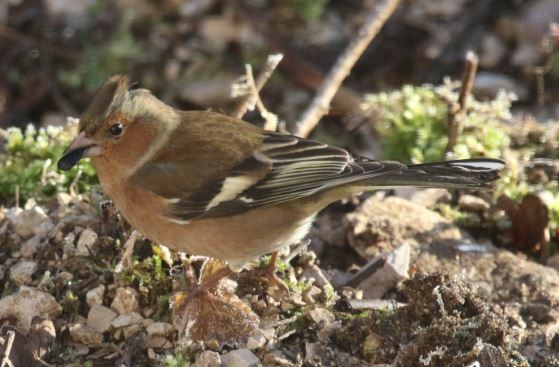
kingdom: Animalia
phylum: Chordata
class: Aves
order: Passeriformes
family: Fringillidae
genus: Fringilla
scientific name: Fringilla coelebs
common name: Common chaffinch
